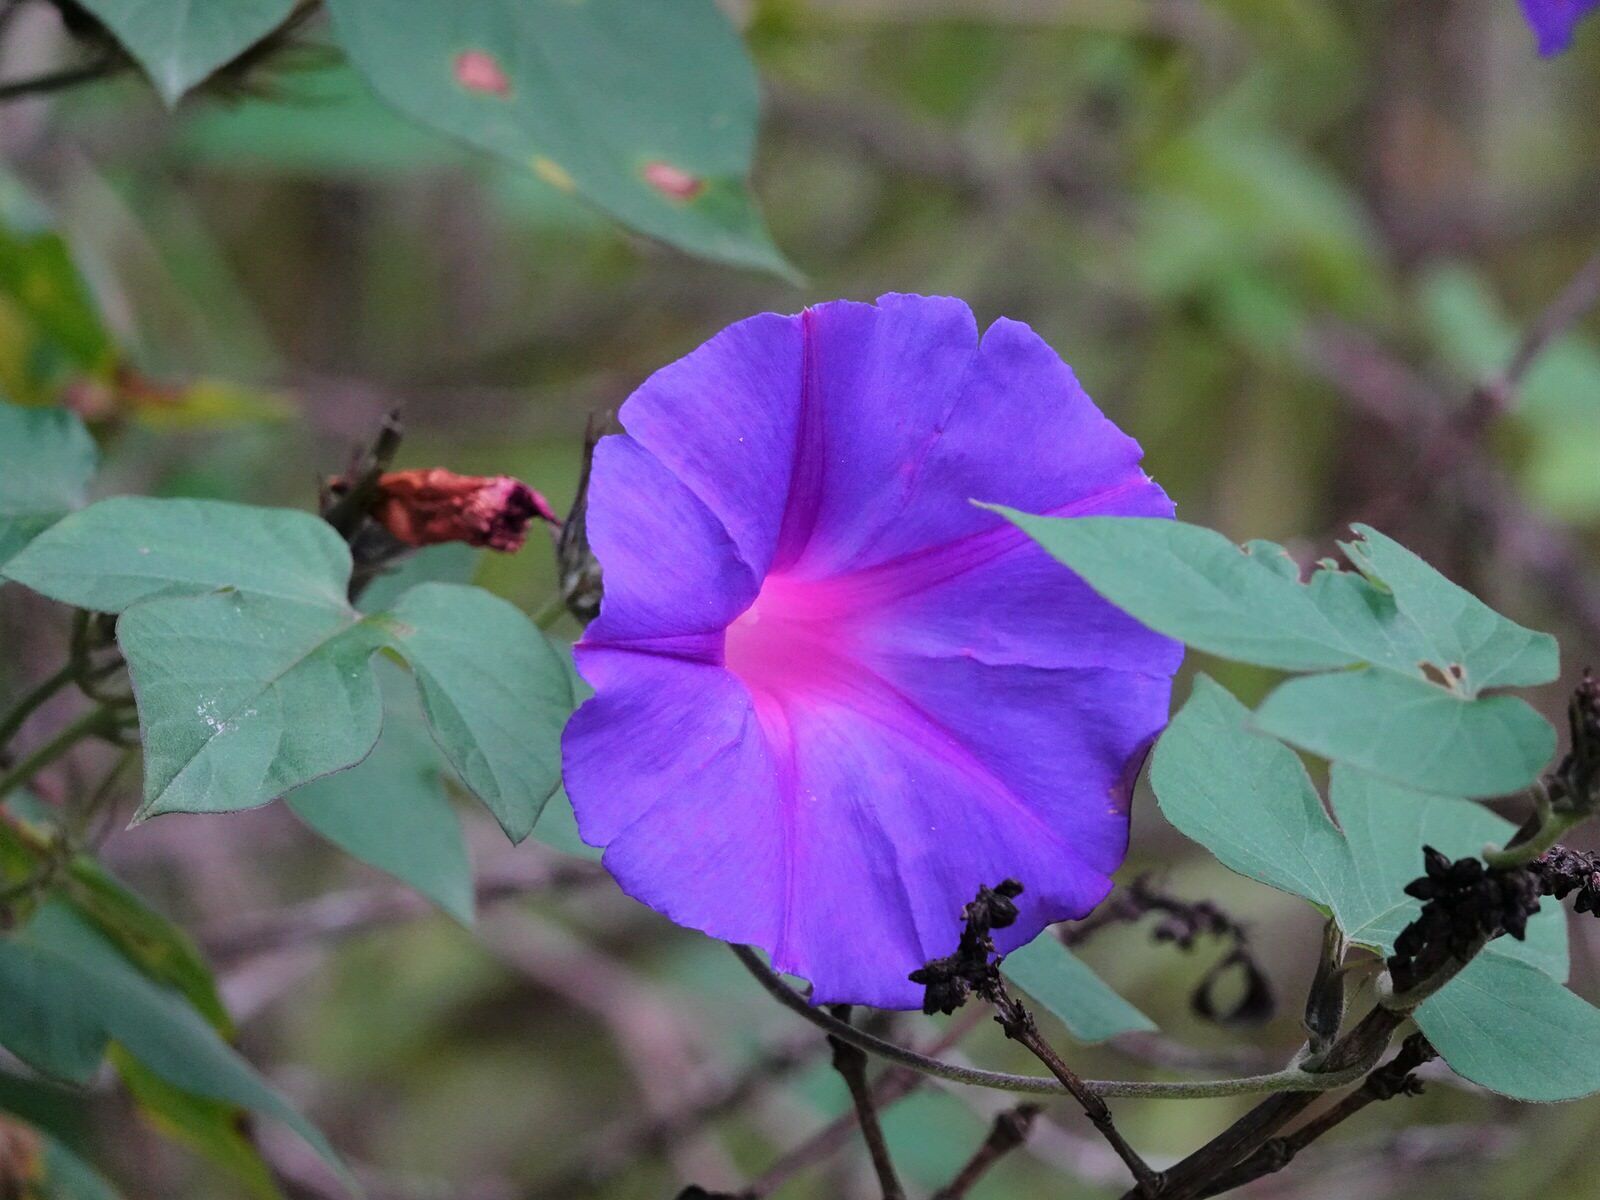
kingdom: Plantae
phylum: Tracheophyta
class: Magnoliopsida
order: Solanales
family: Convolvulaceae
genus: Ipomoea
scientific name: Ipomoea indica
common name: Blue dawnflower
